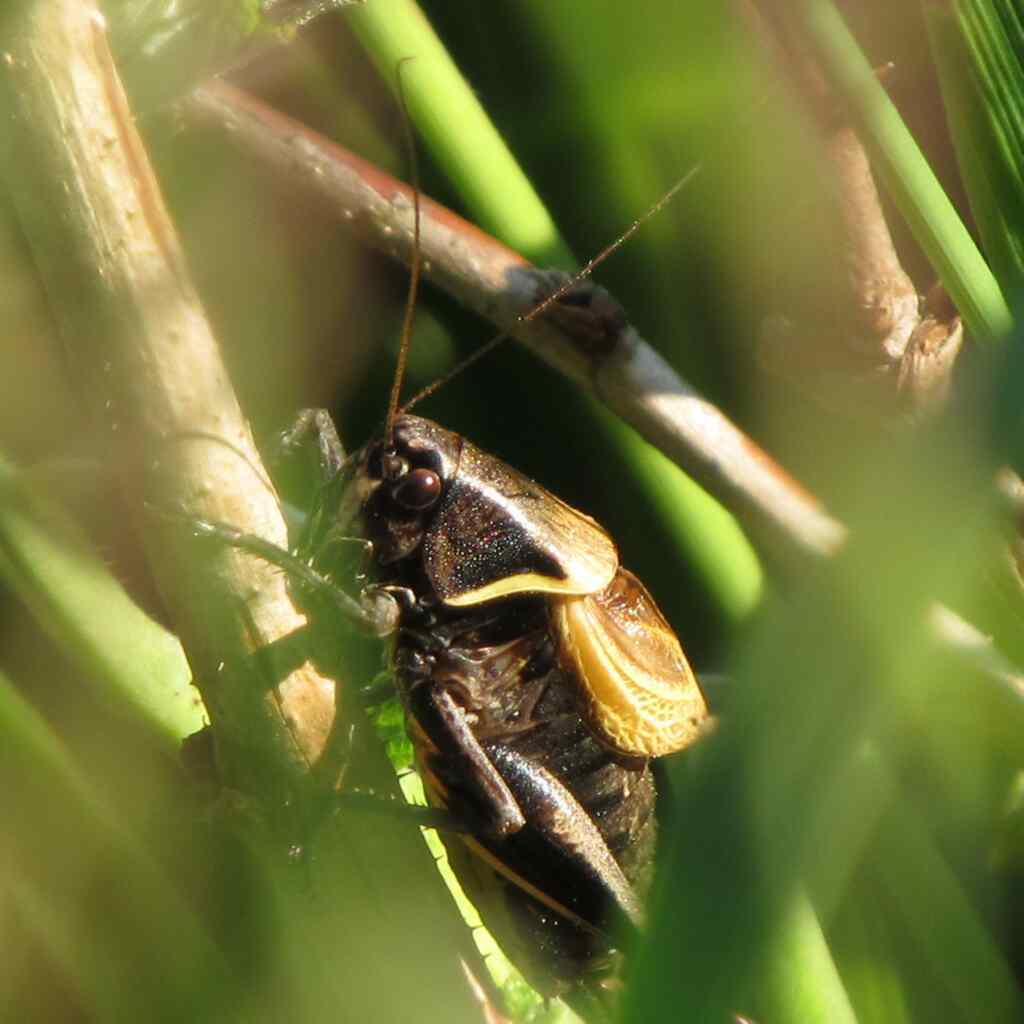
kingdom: Animalia
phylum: Arthropoda
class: Insecta
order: Orthoptera
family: Tettigoniidae
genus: Pholidoptera
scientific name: Pholidoptera aptera
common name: Alpine dark bush-cricket
